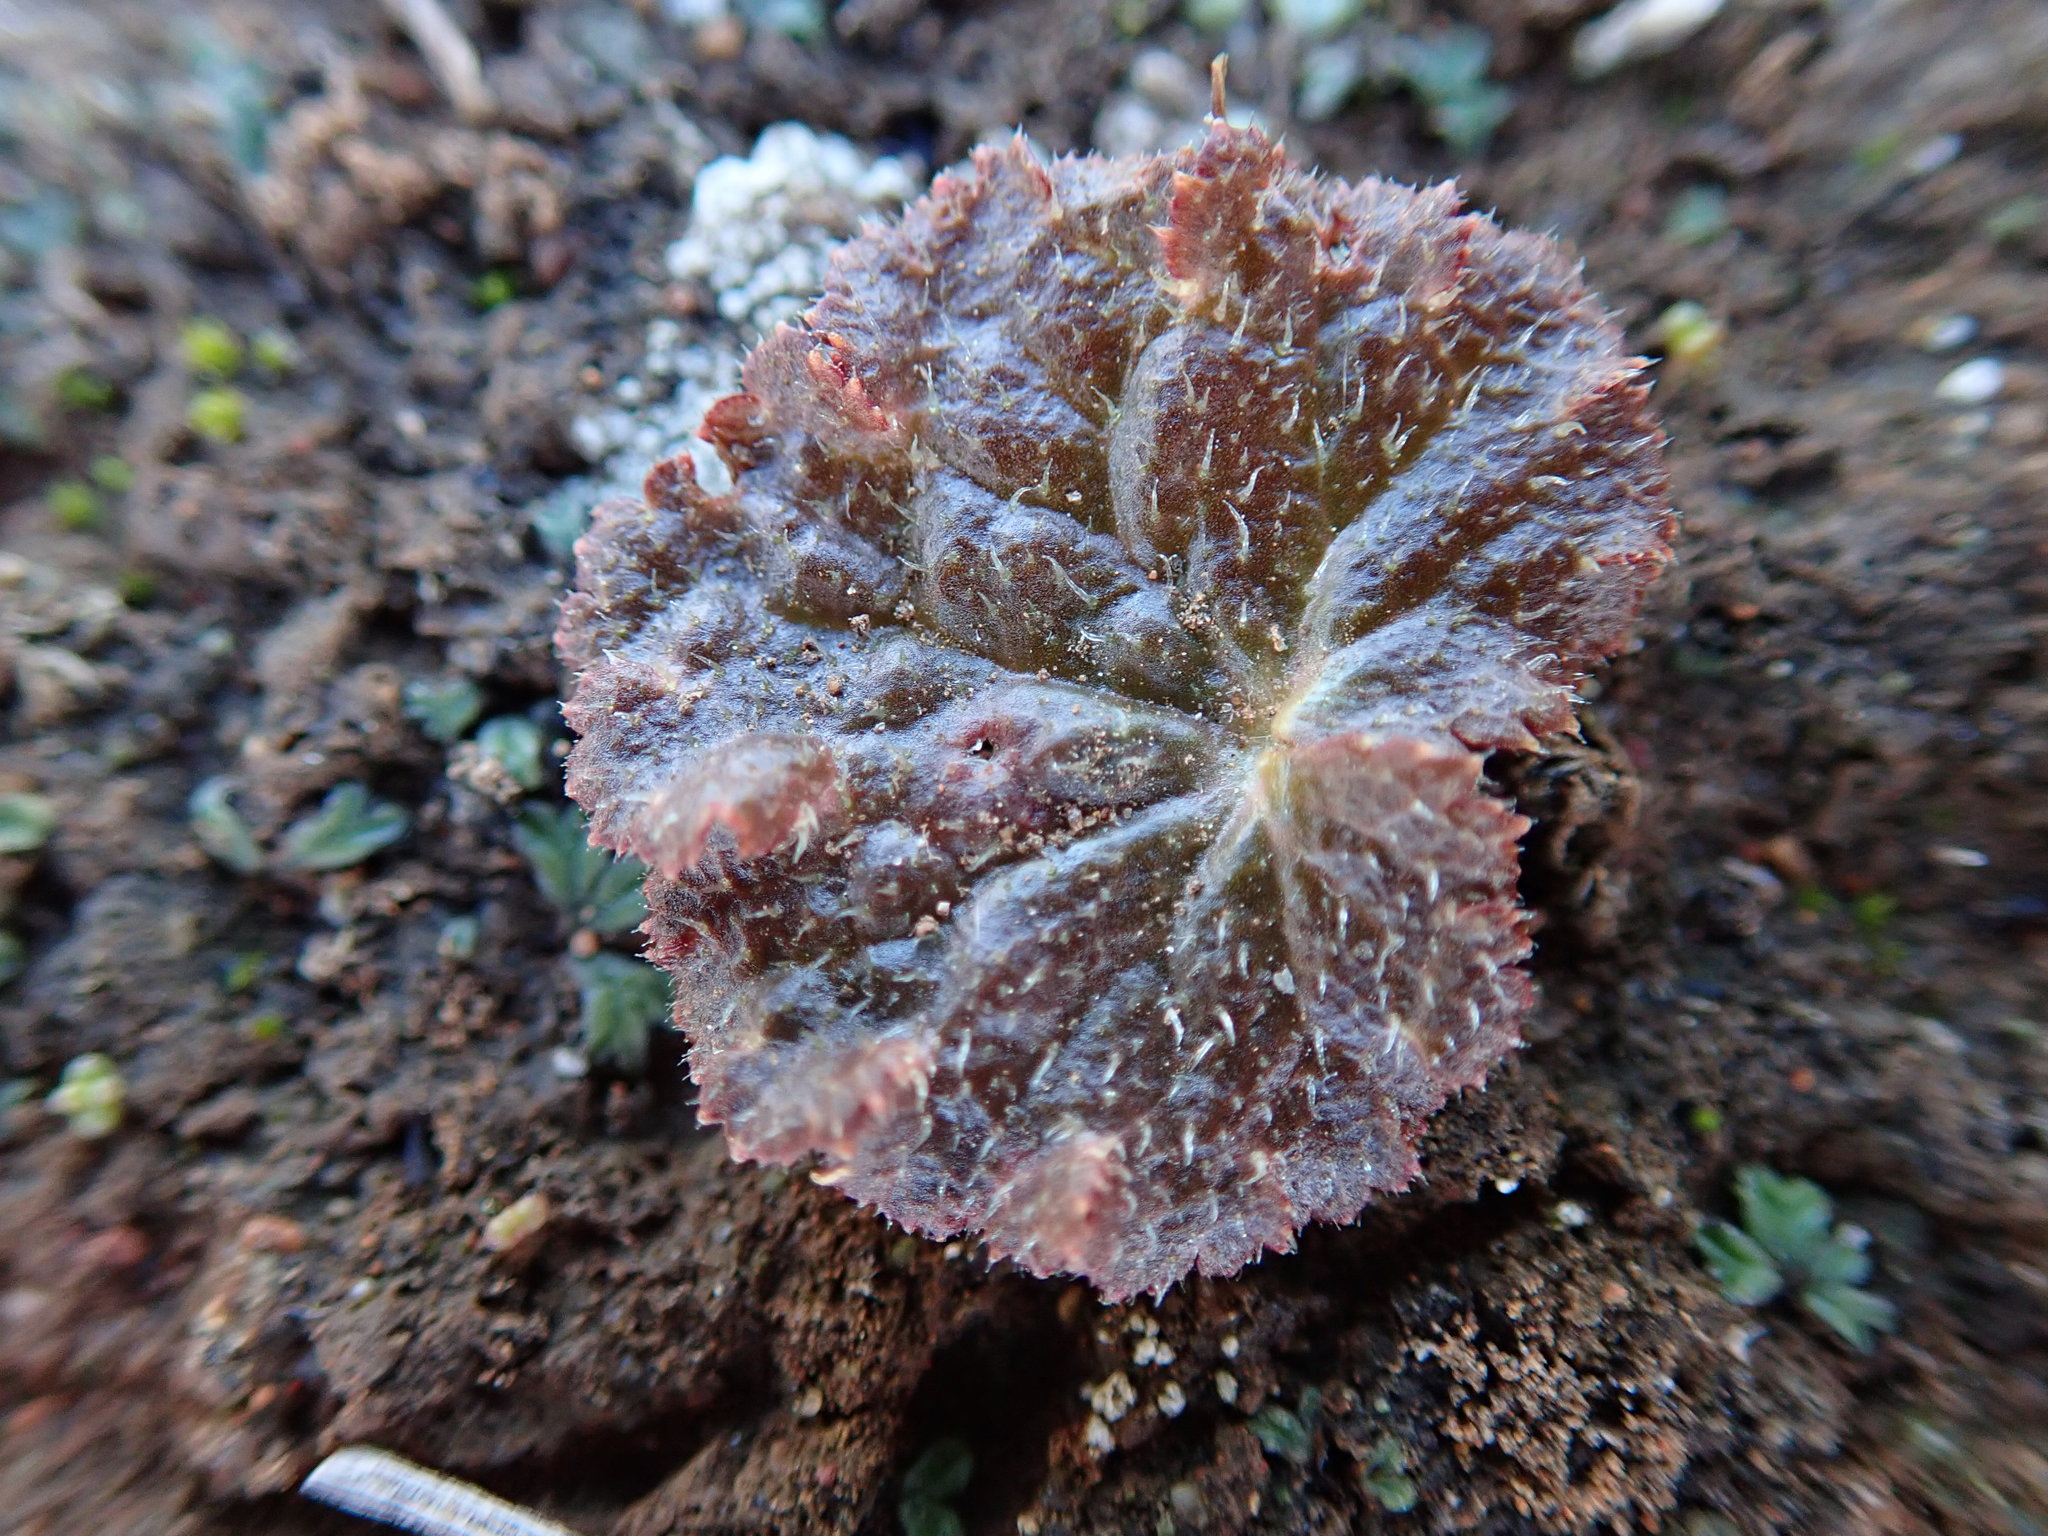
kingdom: Plantae
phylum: Tracheophyta
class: Magnoliopsida
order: Saxifragales
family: Saxifragaceae
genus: Jepsonia
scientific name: Jepsonia parryi
